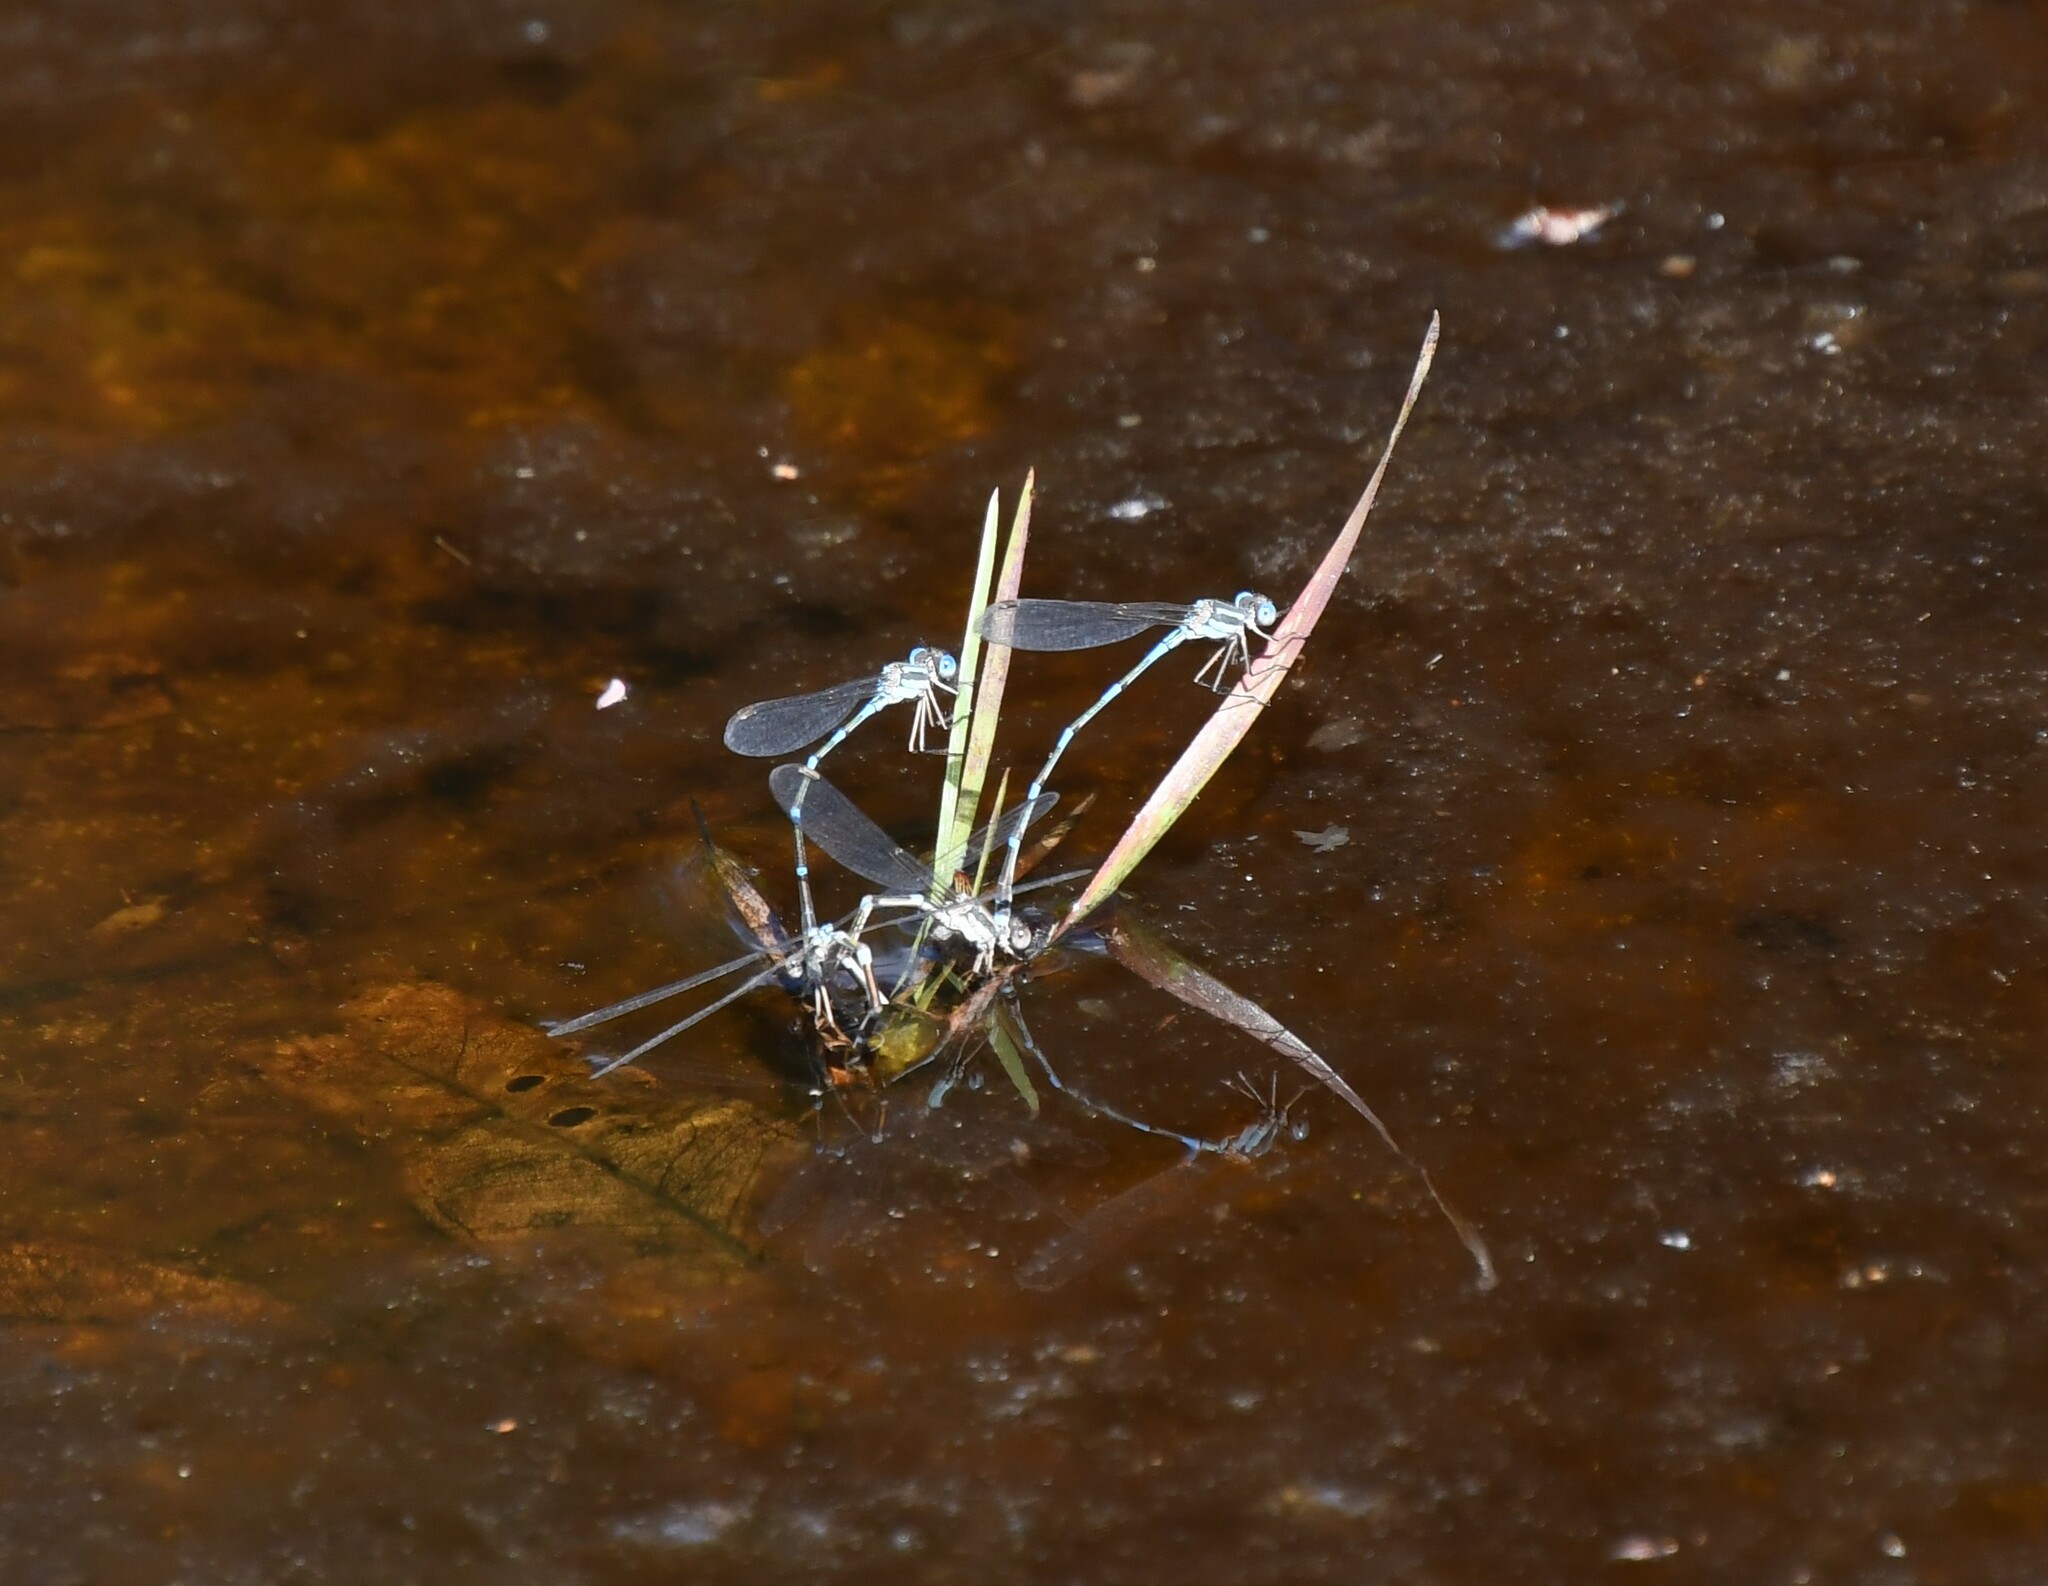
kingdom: Animalia
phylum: Arthropoda
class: Insecta
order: Odonata
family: Lestidae
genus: Austrolestes
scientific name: Austrolestes leda
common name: Wandering ringtail
